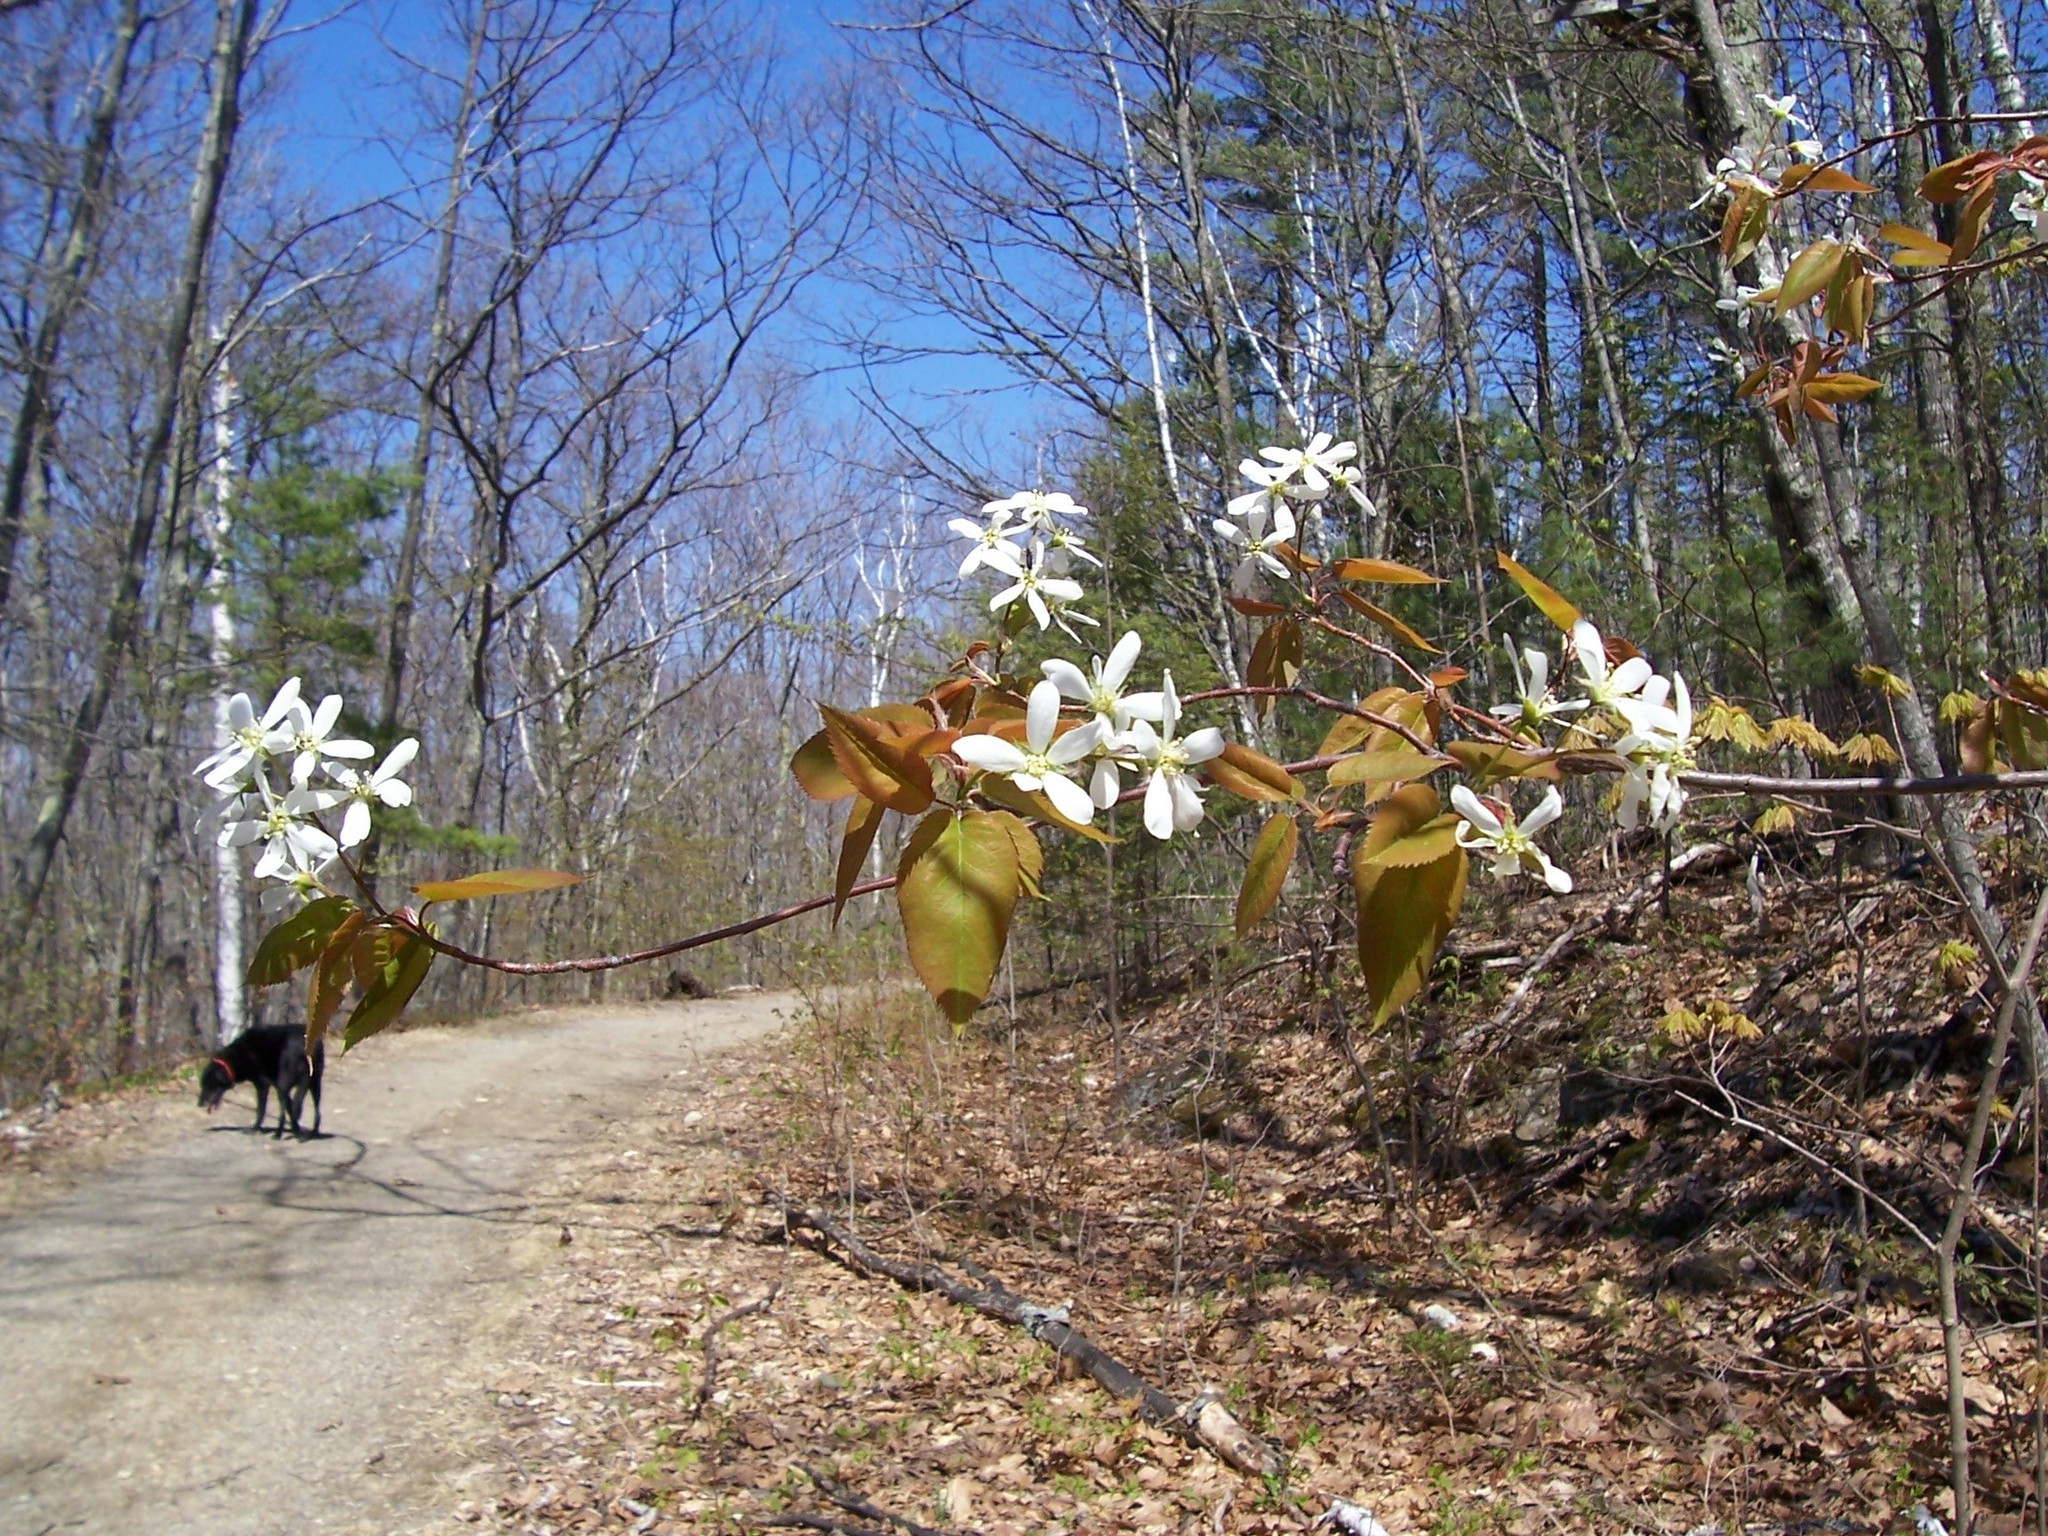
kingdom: Plantae
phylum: Tracheophyta
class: Magnoliopsida
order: Rosales
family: Rosaceae
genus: Amelanchier
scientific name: Amelanchier intermedia
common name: Intermediate shadbush
